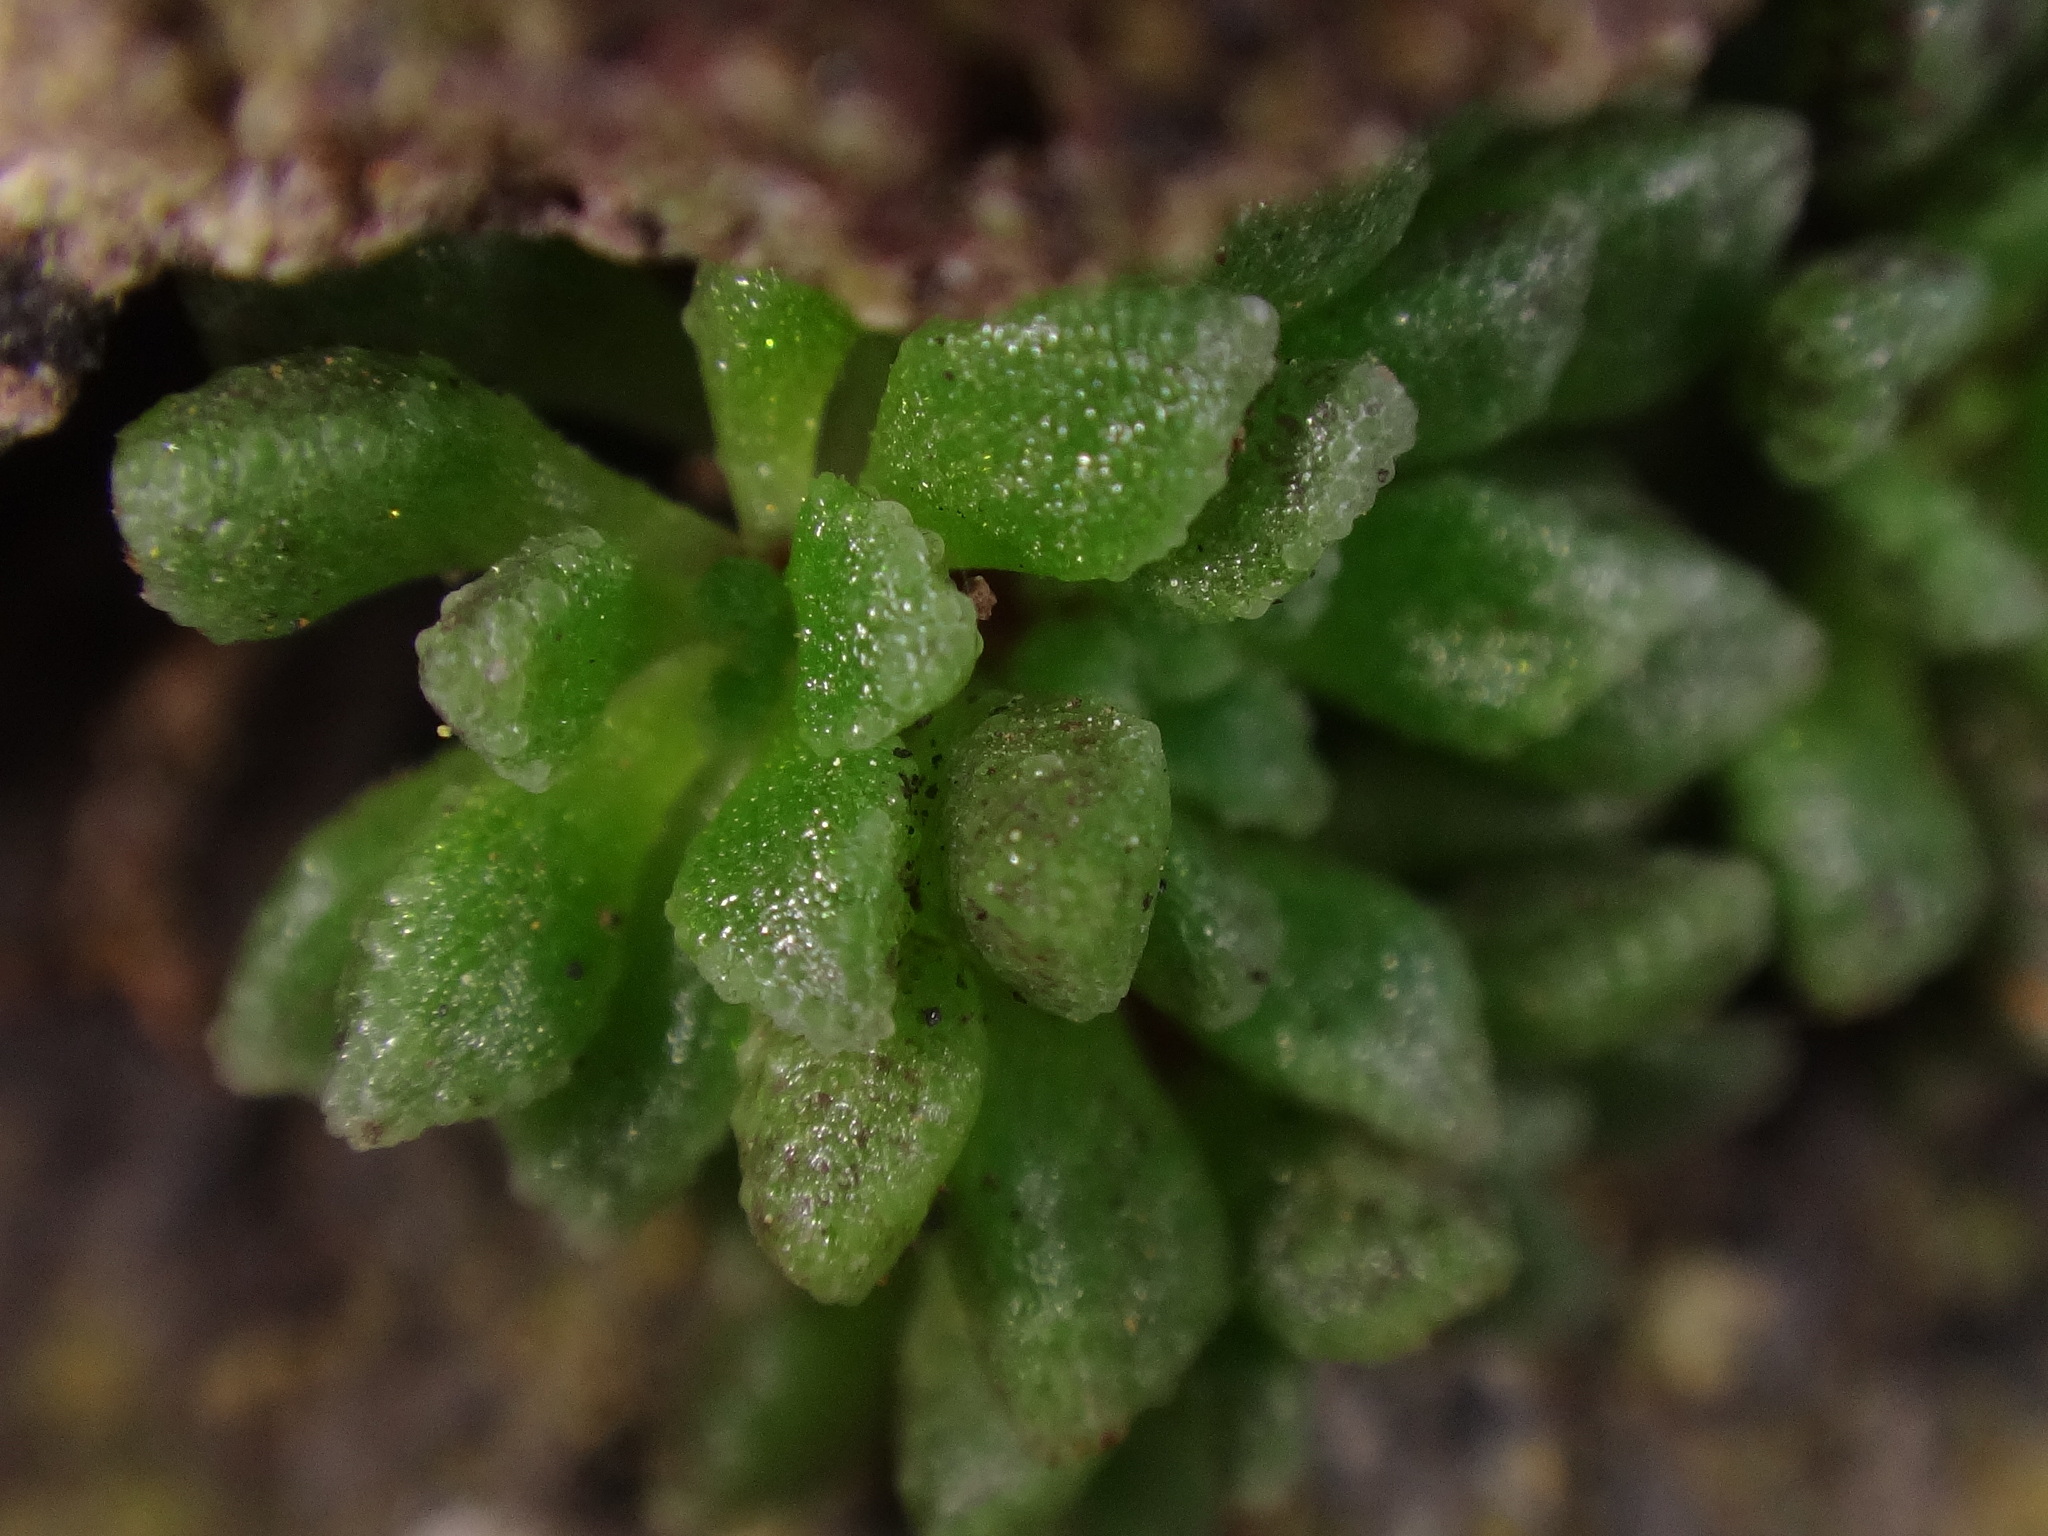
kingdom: Plantae
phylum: Tracheophyta
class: Magnoliopsida
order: Saxifragales
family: Crassulaceae
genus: Monanthes
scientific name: Monanthes muralis
